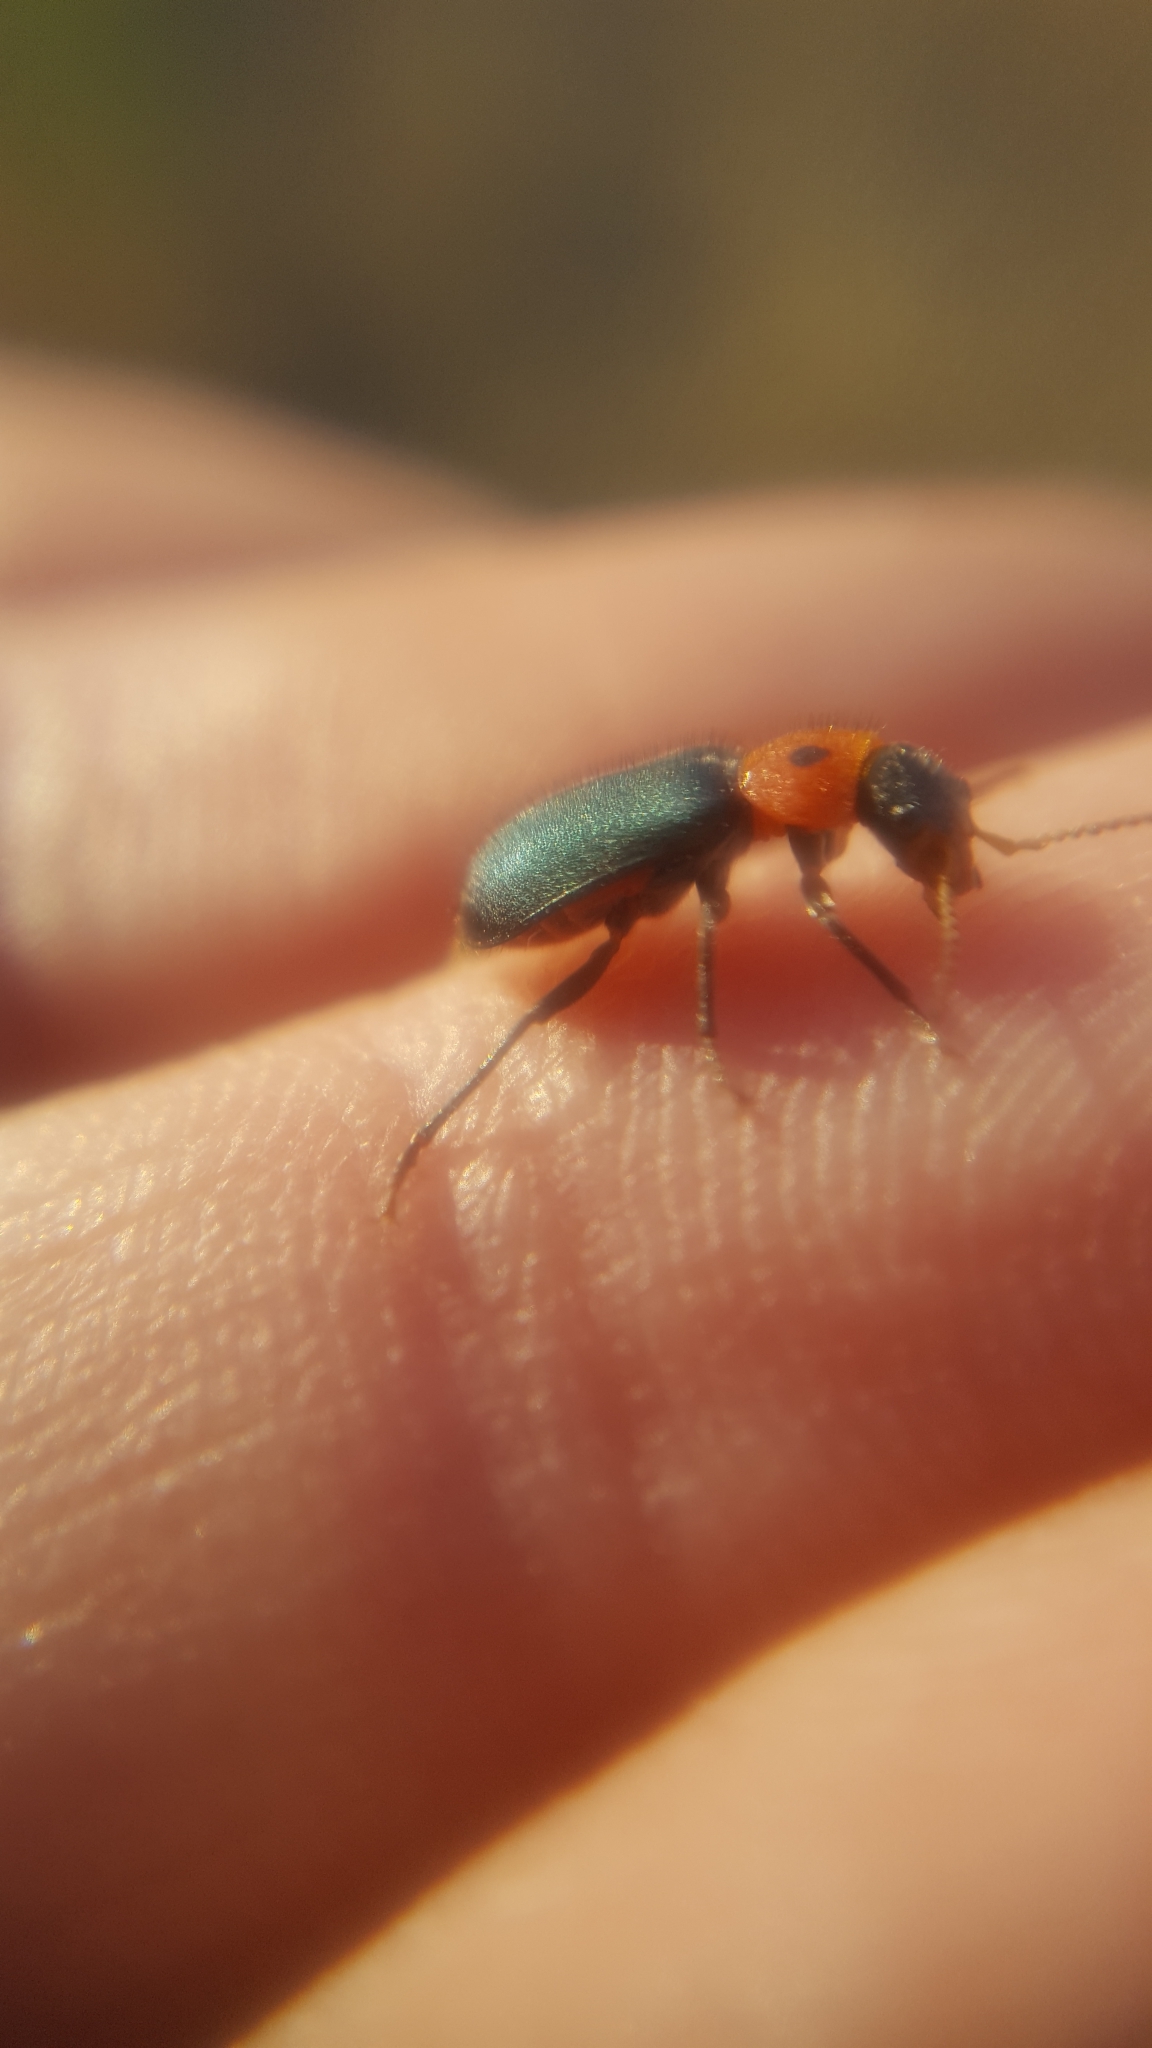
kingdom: Animalia
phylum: Arthropoda
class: Insecta
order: Coleoptera
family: Melyridae
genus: Collops
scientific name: Collops bipunctatus
